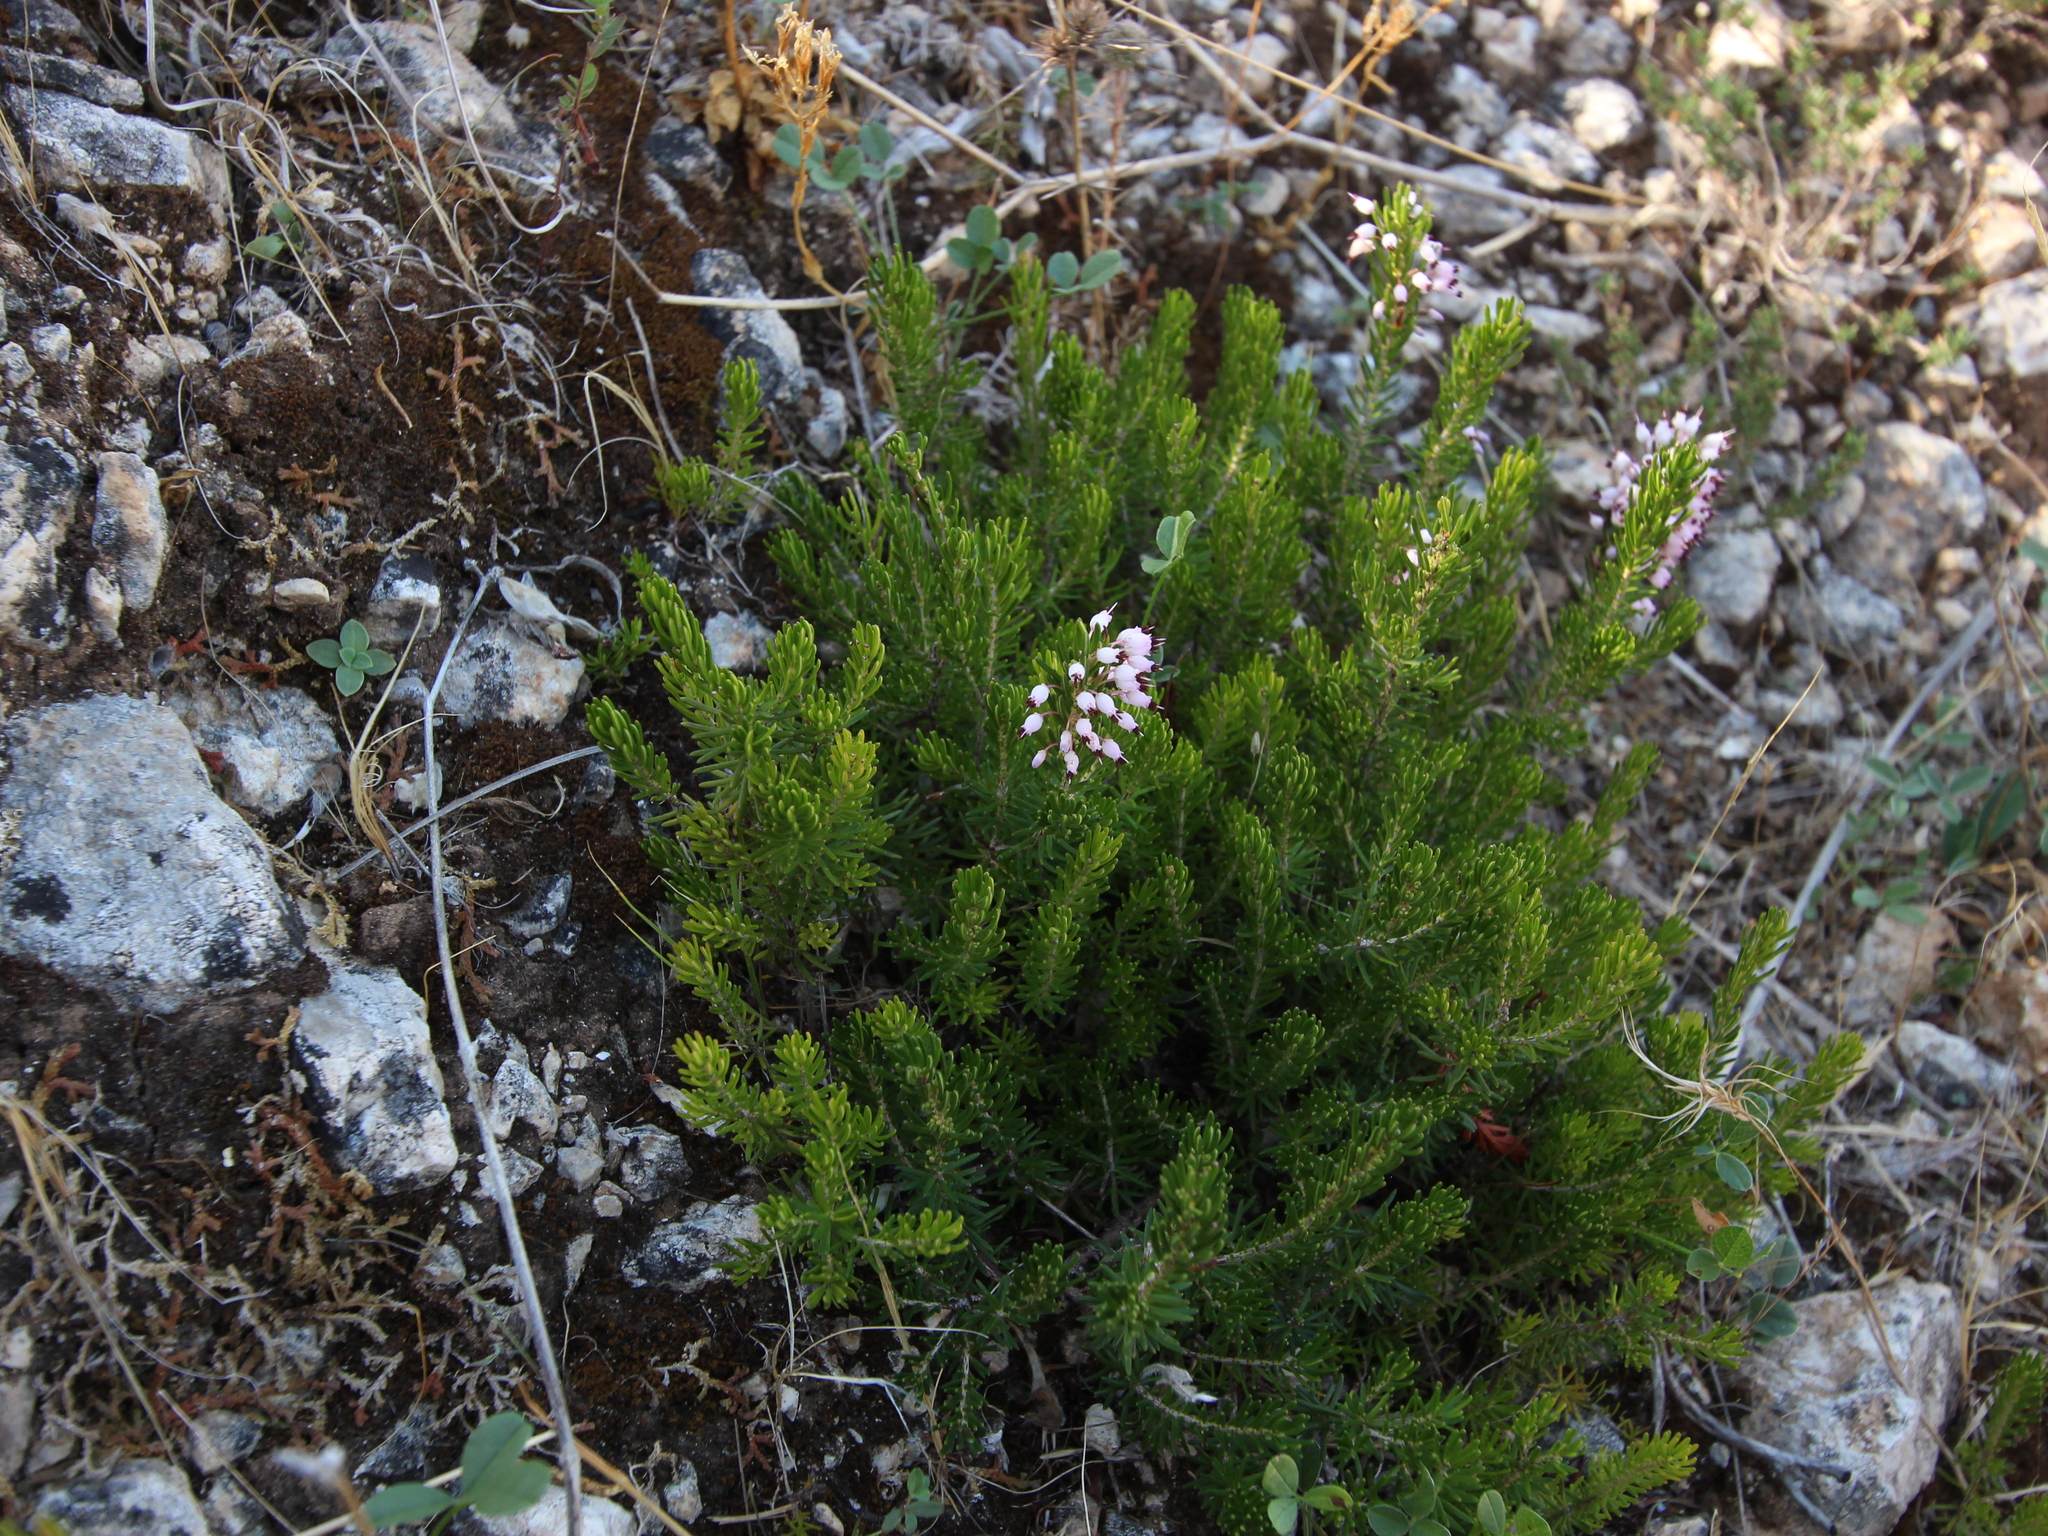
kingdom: Plantae
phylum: Tracheophyta
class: Magnoliopsida
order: Ericales
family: Ericaceae
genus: Erica
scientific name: Erica multiflora
